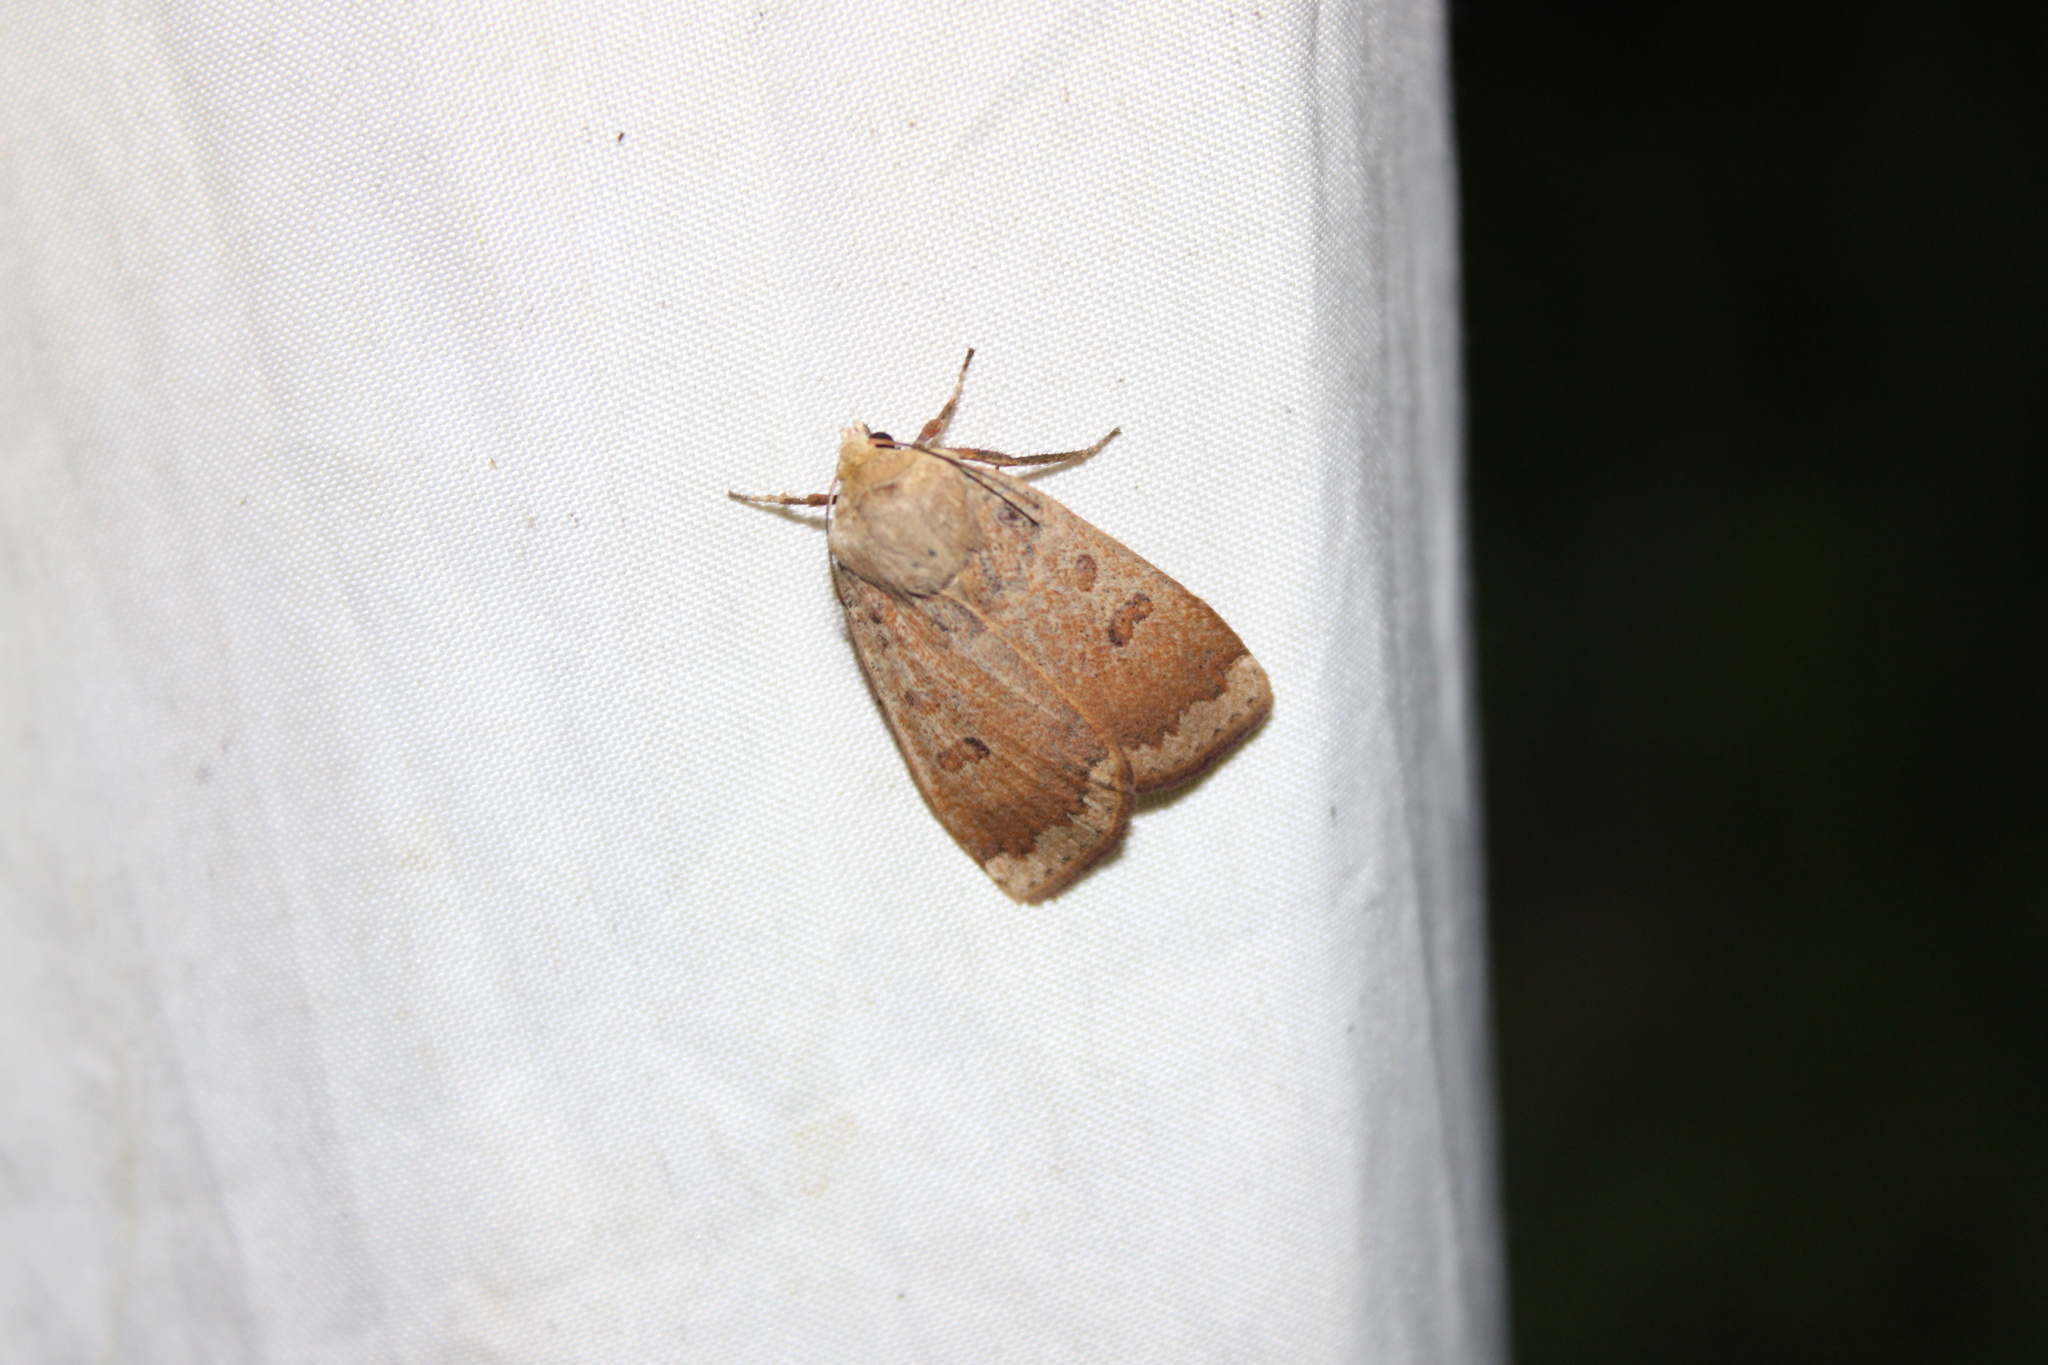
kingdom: Animalia
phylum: Arthropoda
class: Insecta
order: Lepidoptera
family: Noctuidae
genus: Abagrotis
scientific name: Abagrotis alternata
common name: Greater red dart
